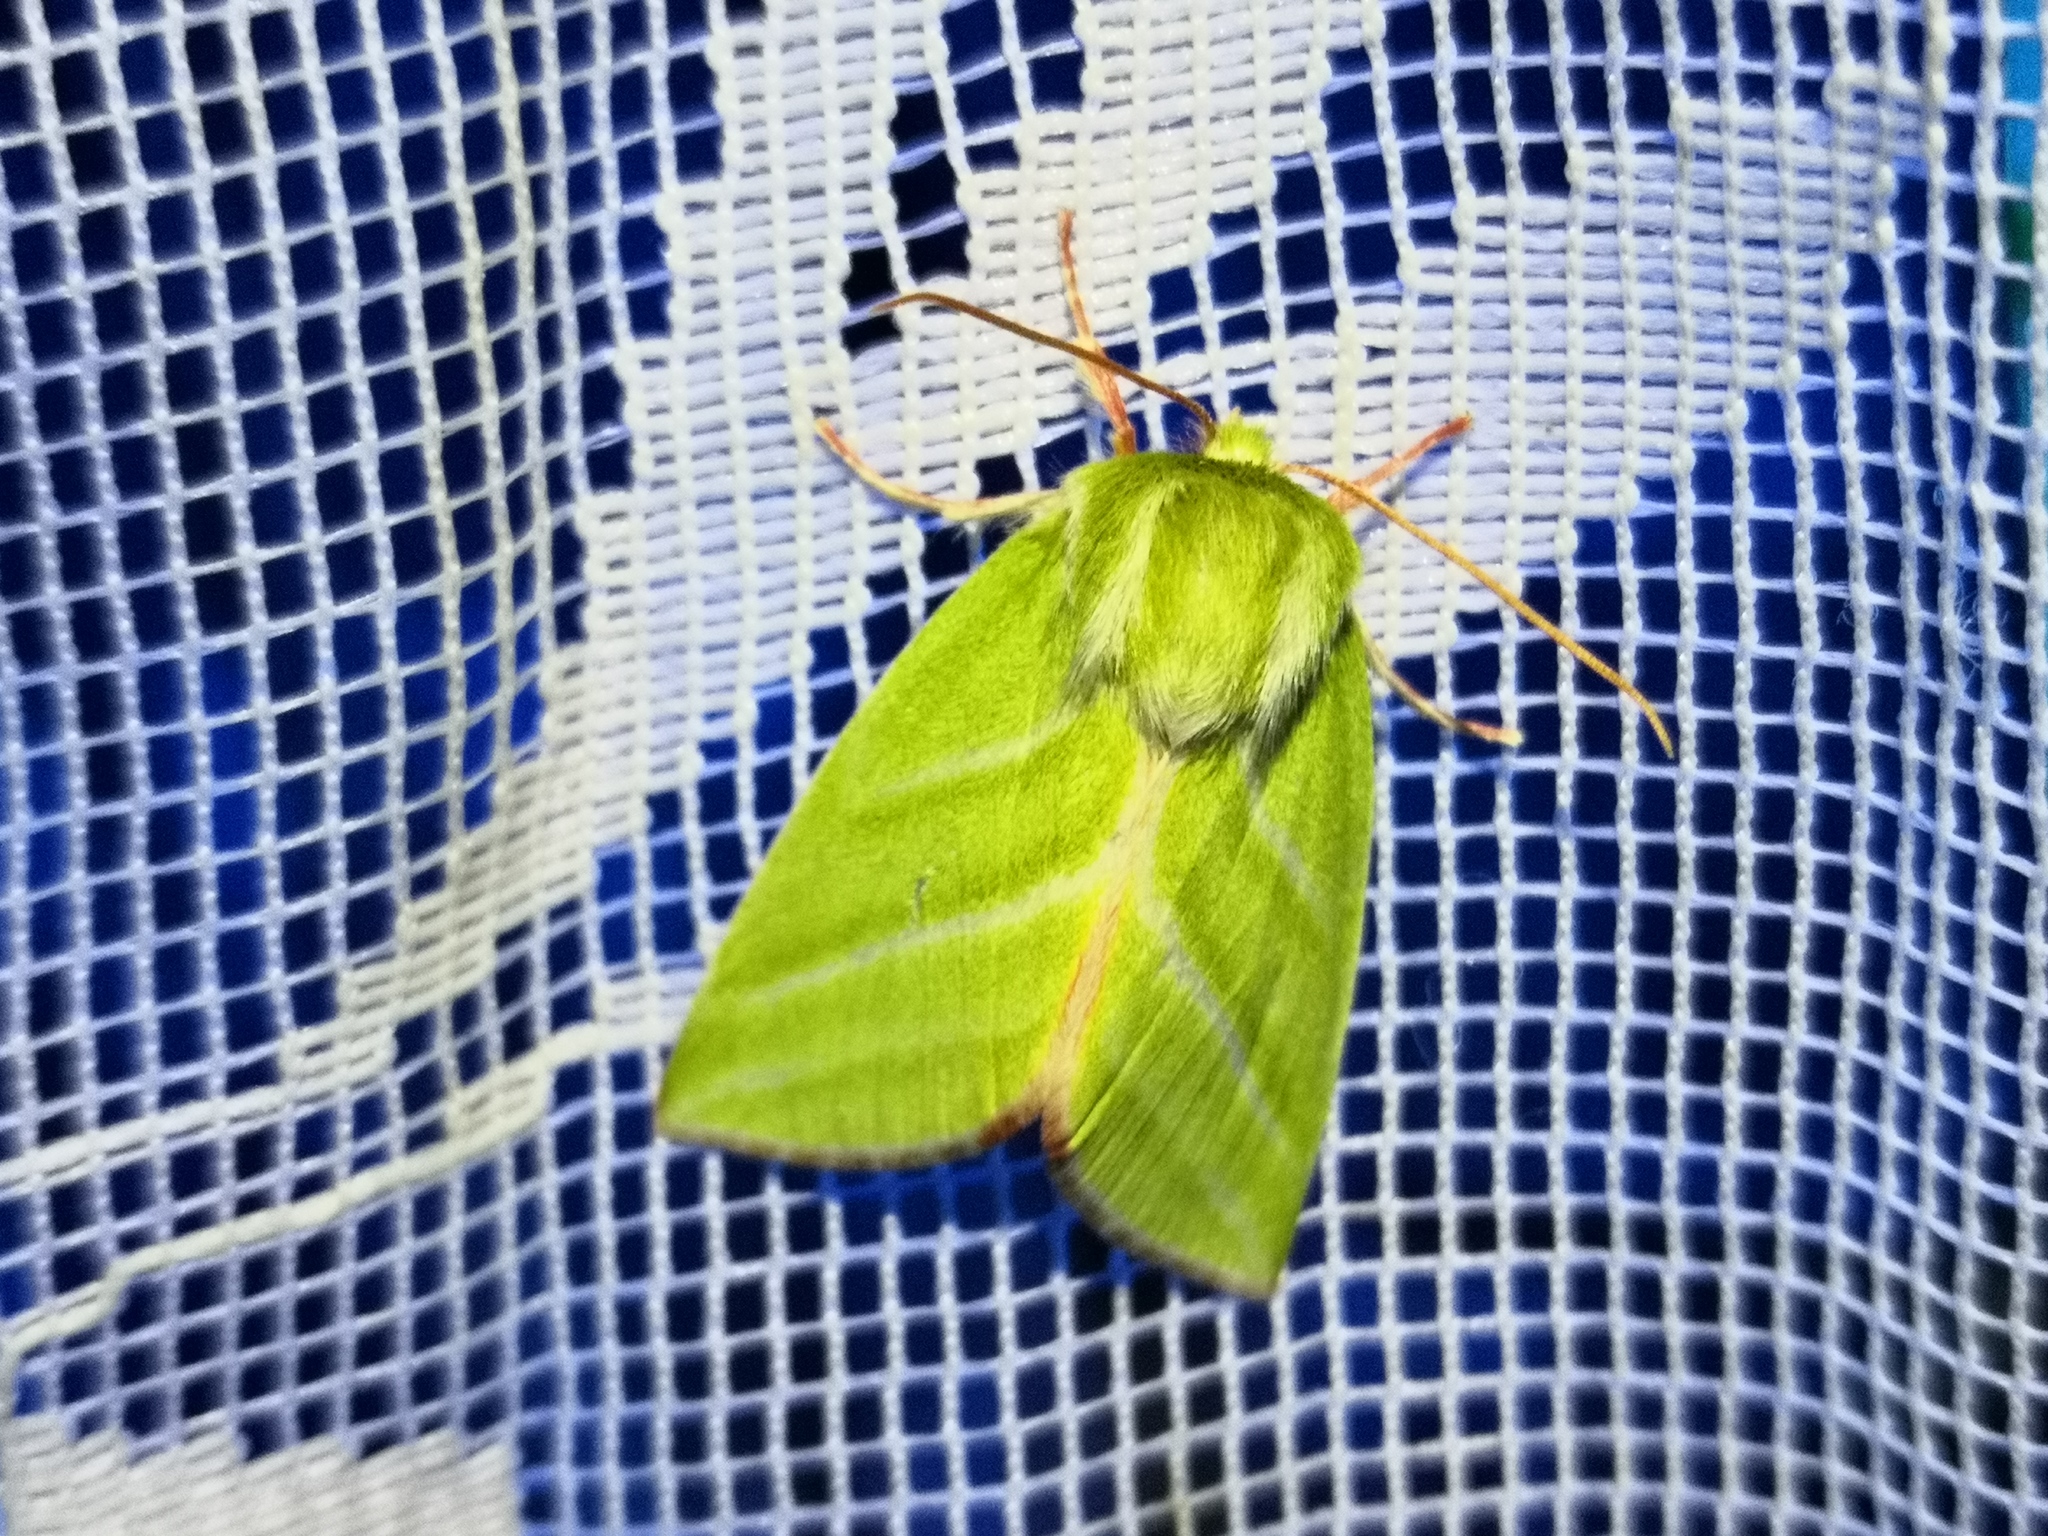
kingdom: Animalia
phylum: Arthropoda
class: Insecta
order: Lepidoptera
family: Nolidae
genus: Pseudoips
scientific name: Pseudoips prasinana
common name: Green silver-lines
